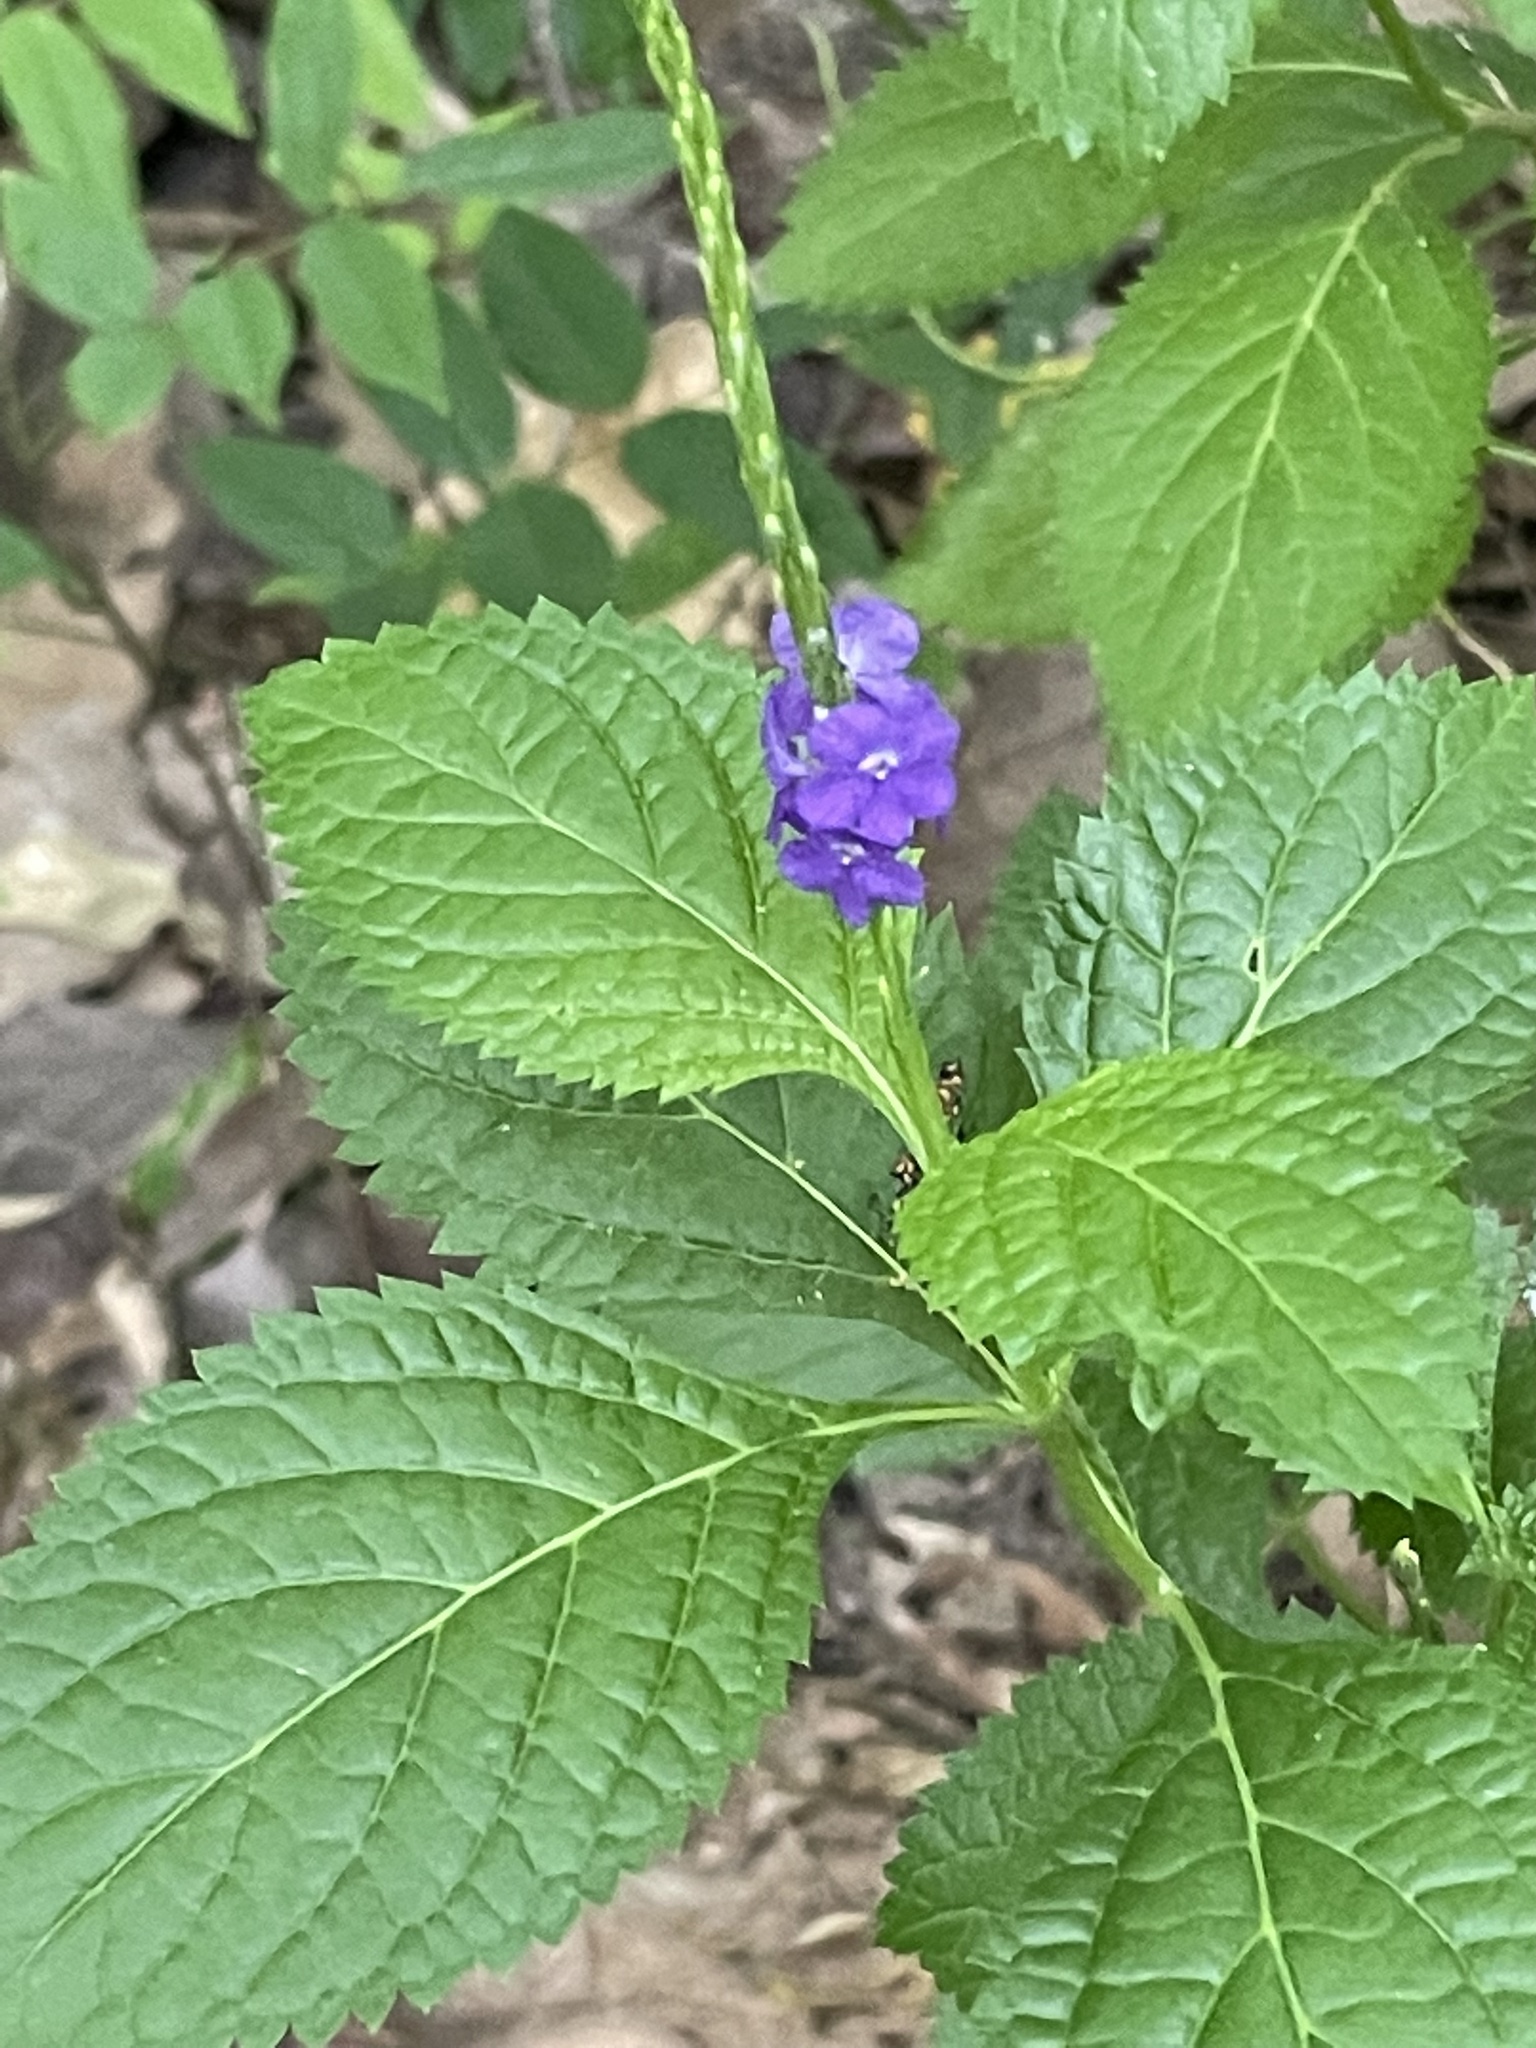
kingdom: Plantae
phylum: Tracheophyta
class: Magnoliopsida
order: Lamiales
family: Verbenaceae
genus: Stachytarpheta
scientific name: Stachytarpheta jamaicensis
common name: Light-blue snakeweed
